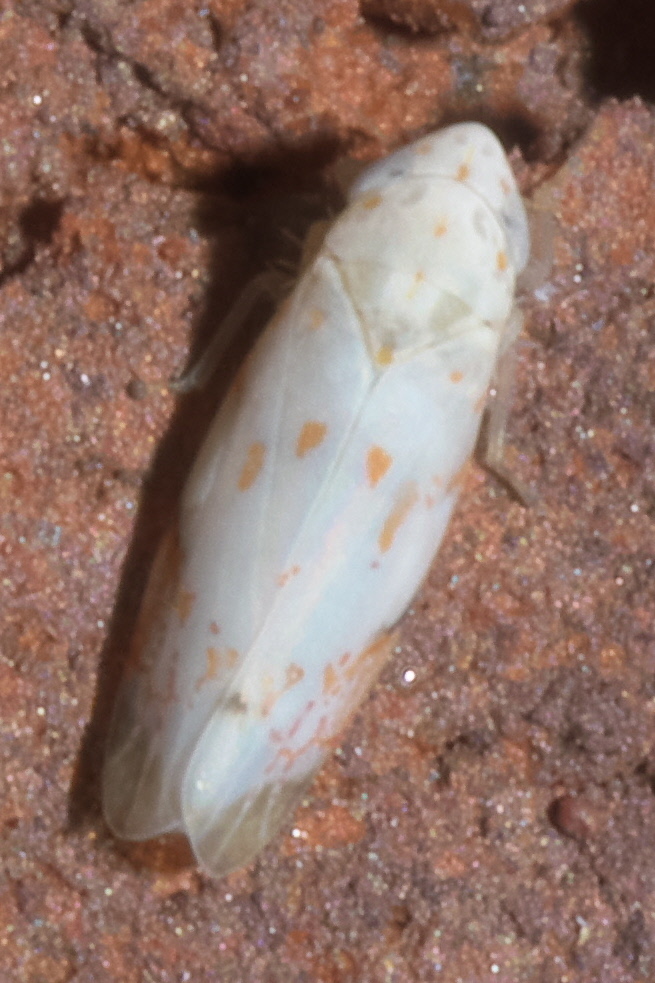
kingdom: Animalia
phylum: Arthropoda
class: Insecta
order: Hemiptera
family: Cicadellidae
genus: Eratoneura
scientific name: Eratoneura stephensoni
